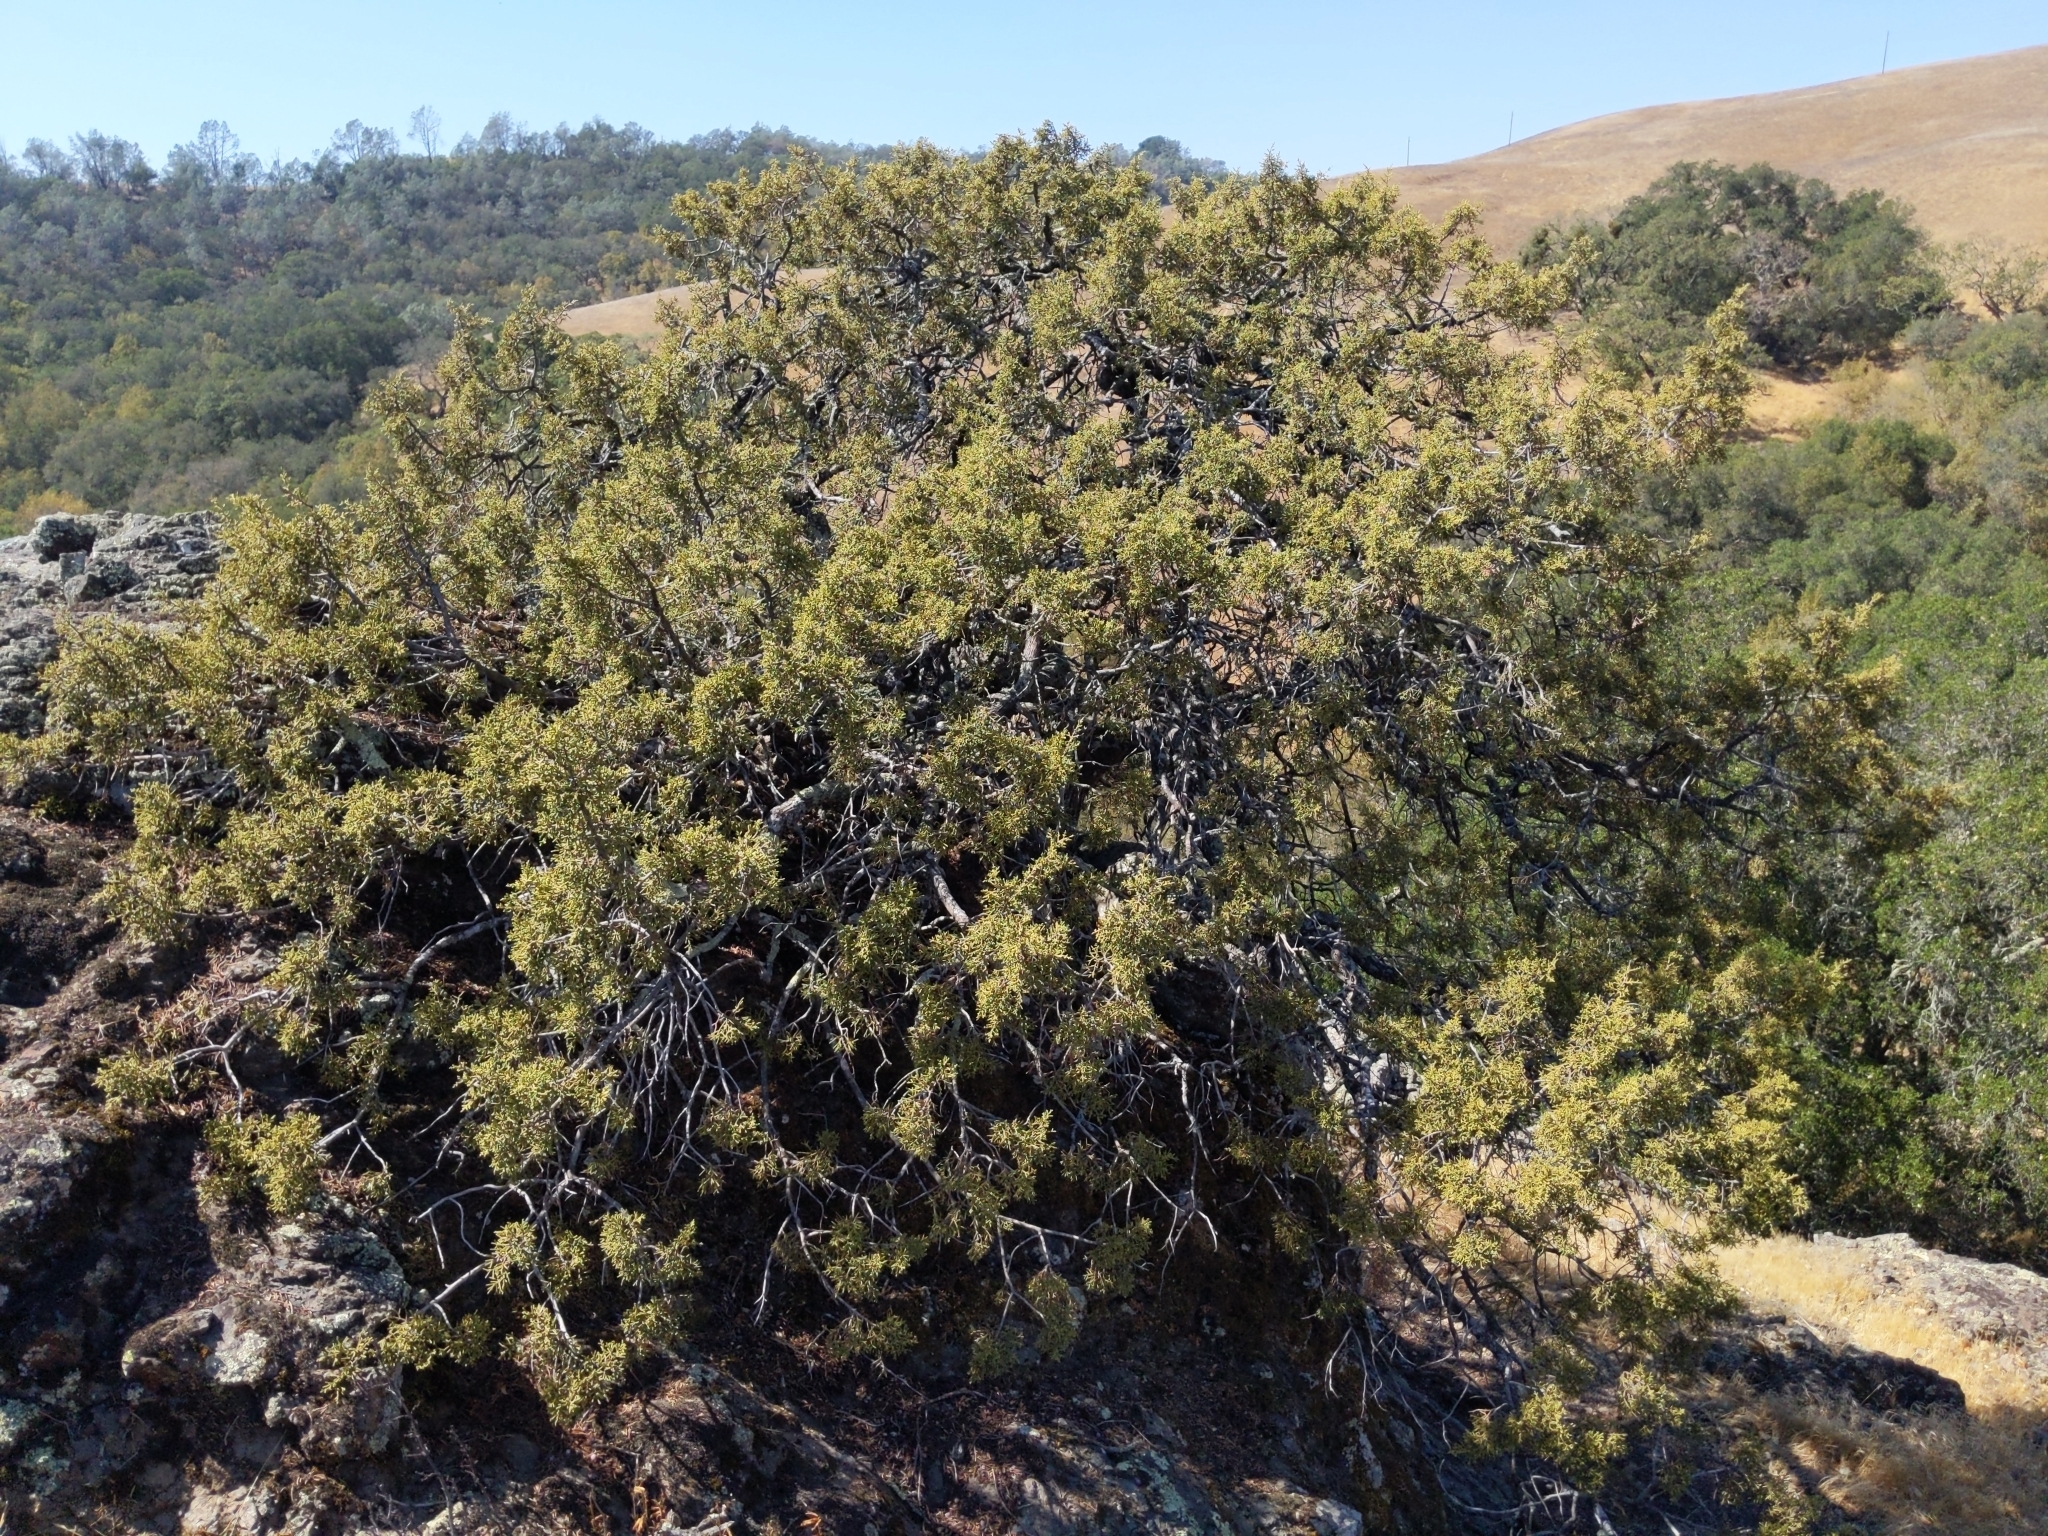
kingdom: Plantae
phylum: Tracheophyta
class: Pinopsida
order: Pinales
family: Cupressaceae
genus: Juniperus
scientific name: Juniperus californica
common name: California juniper
